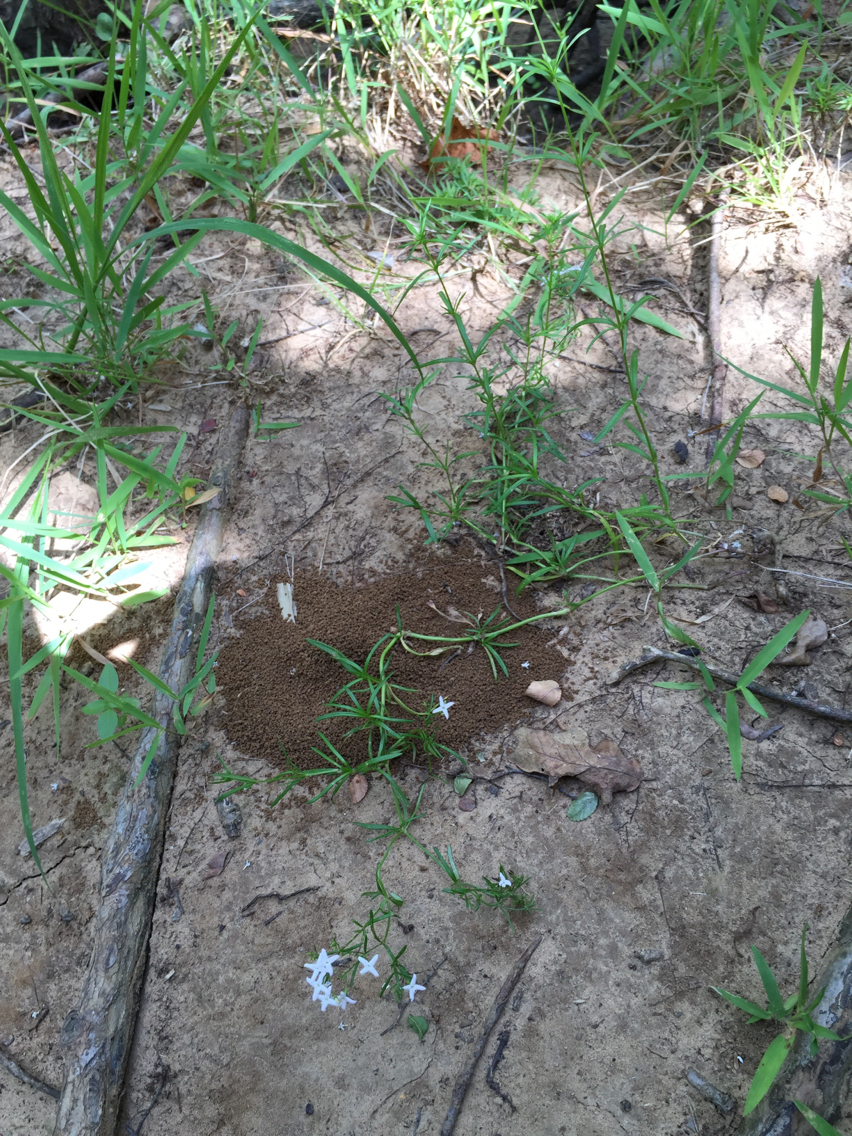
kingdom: Plantae
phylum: Tracheophyta
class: Magnoliopsida
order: Gentianales
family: Rubiaceae
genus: Stenaria
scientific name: Stenaria nigricans
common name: Diamondflowers
